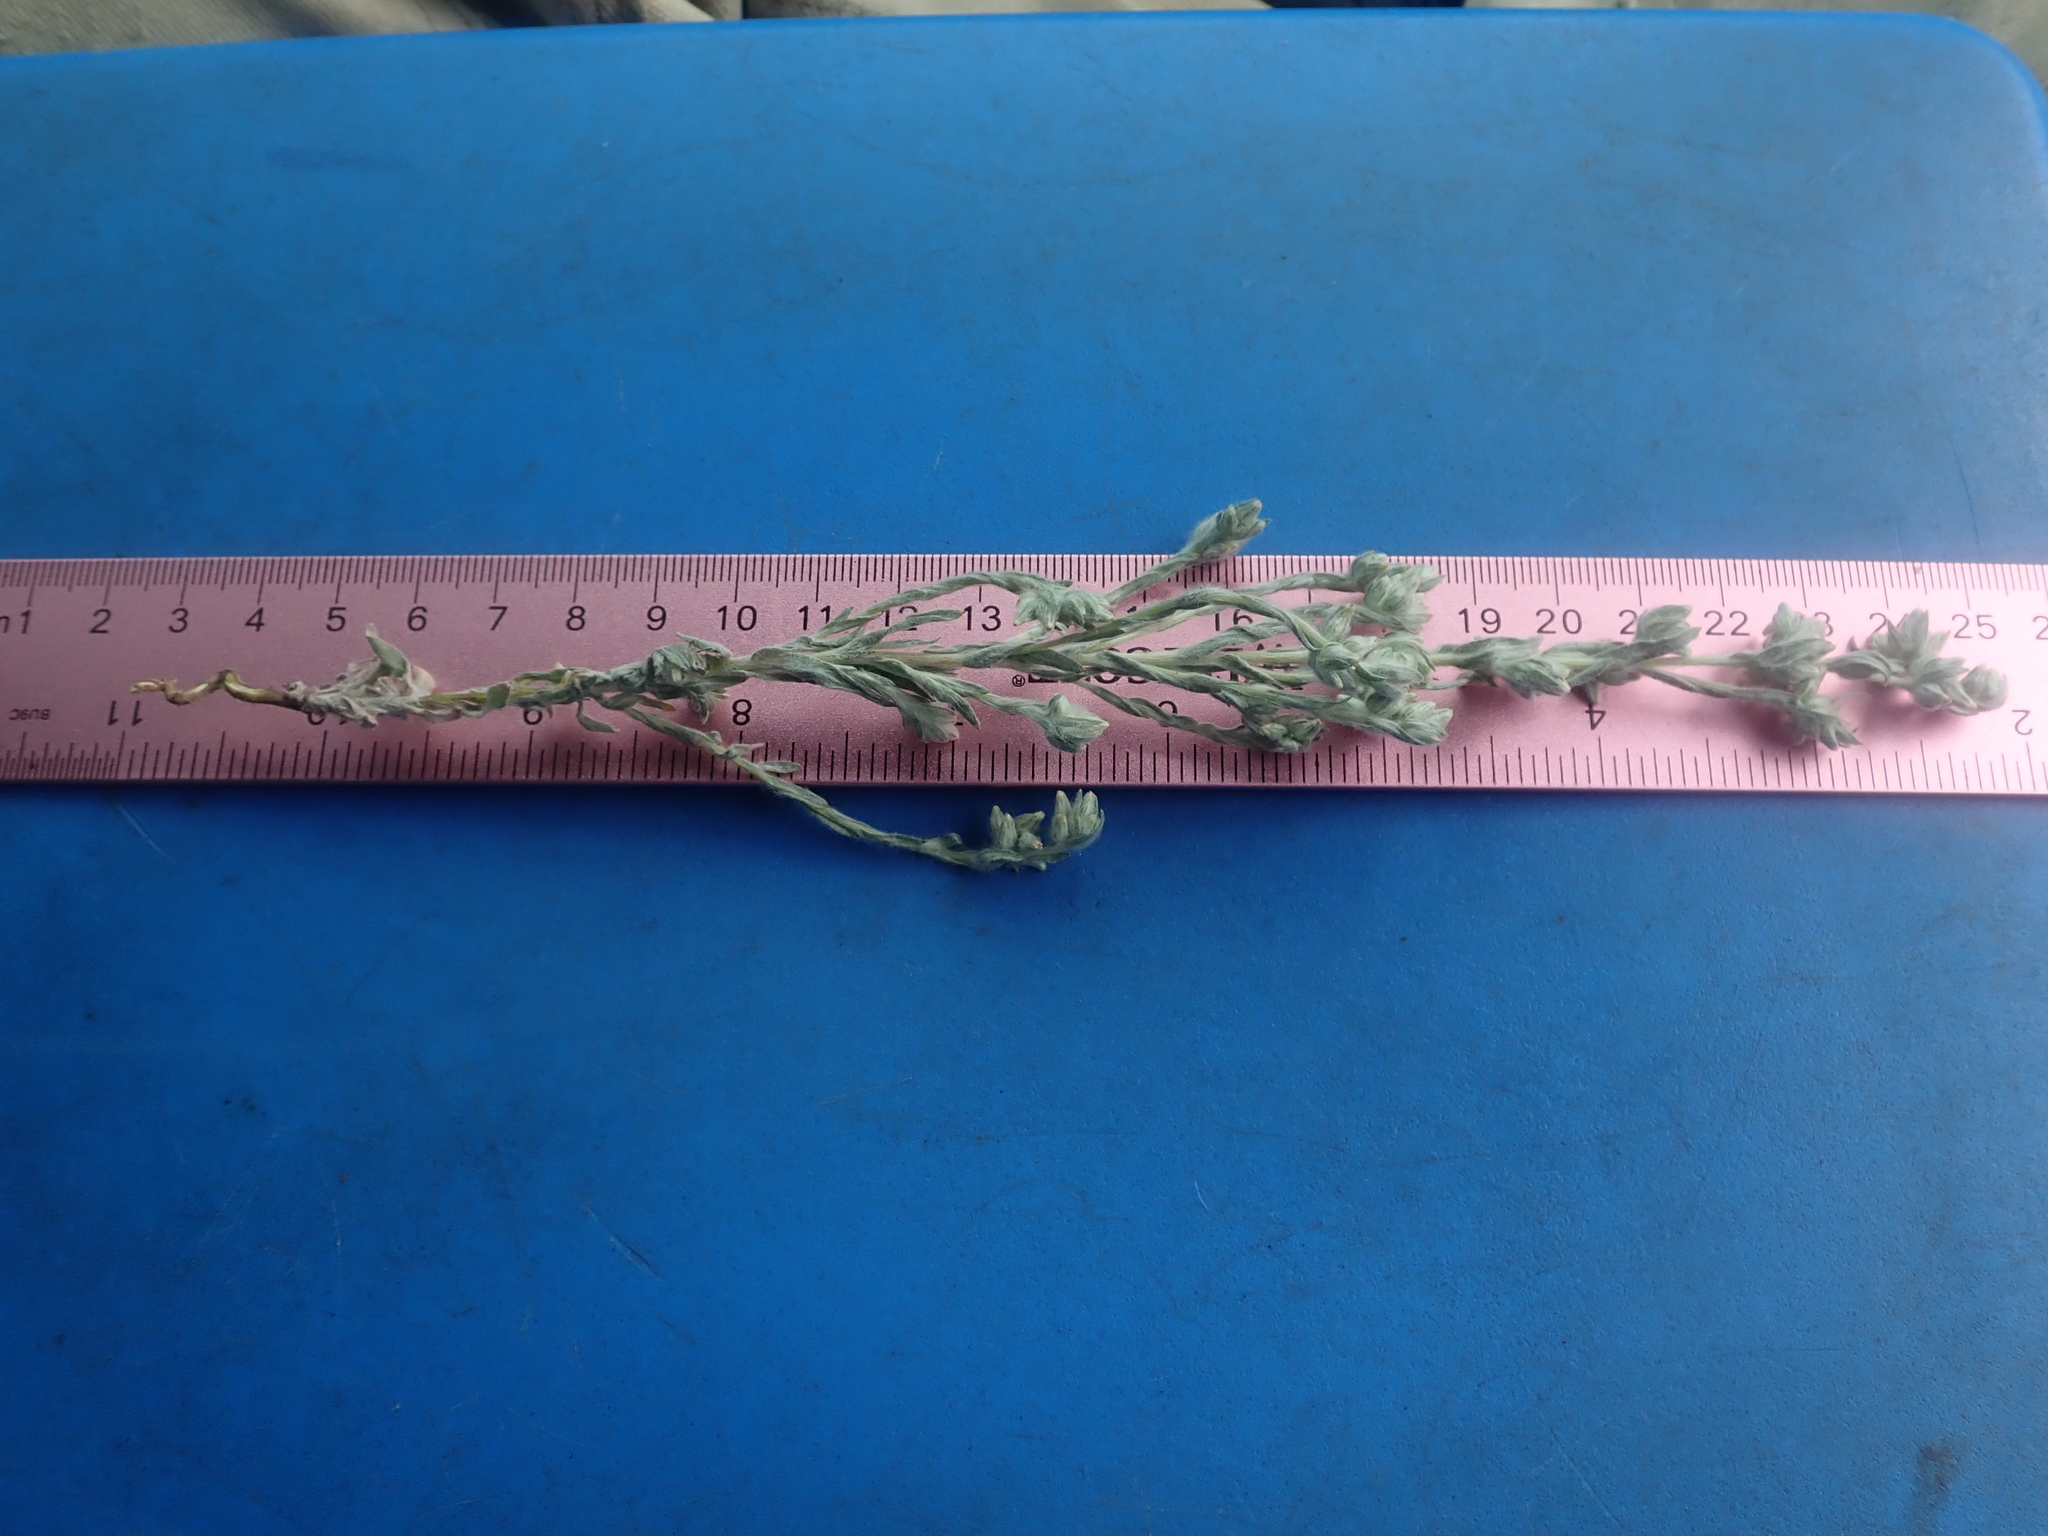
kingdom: Plantae
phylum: Tracheophyta
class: Magnoliopsida
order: Asterales
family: Asteraceae
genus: Filago
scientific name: Filago arvensis
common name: Field cudweed
